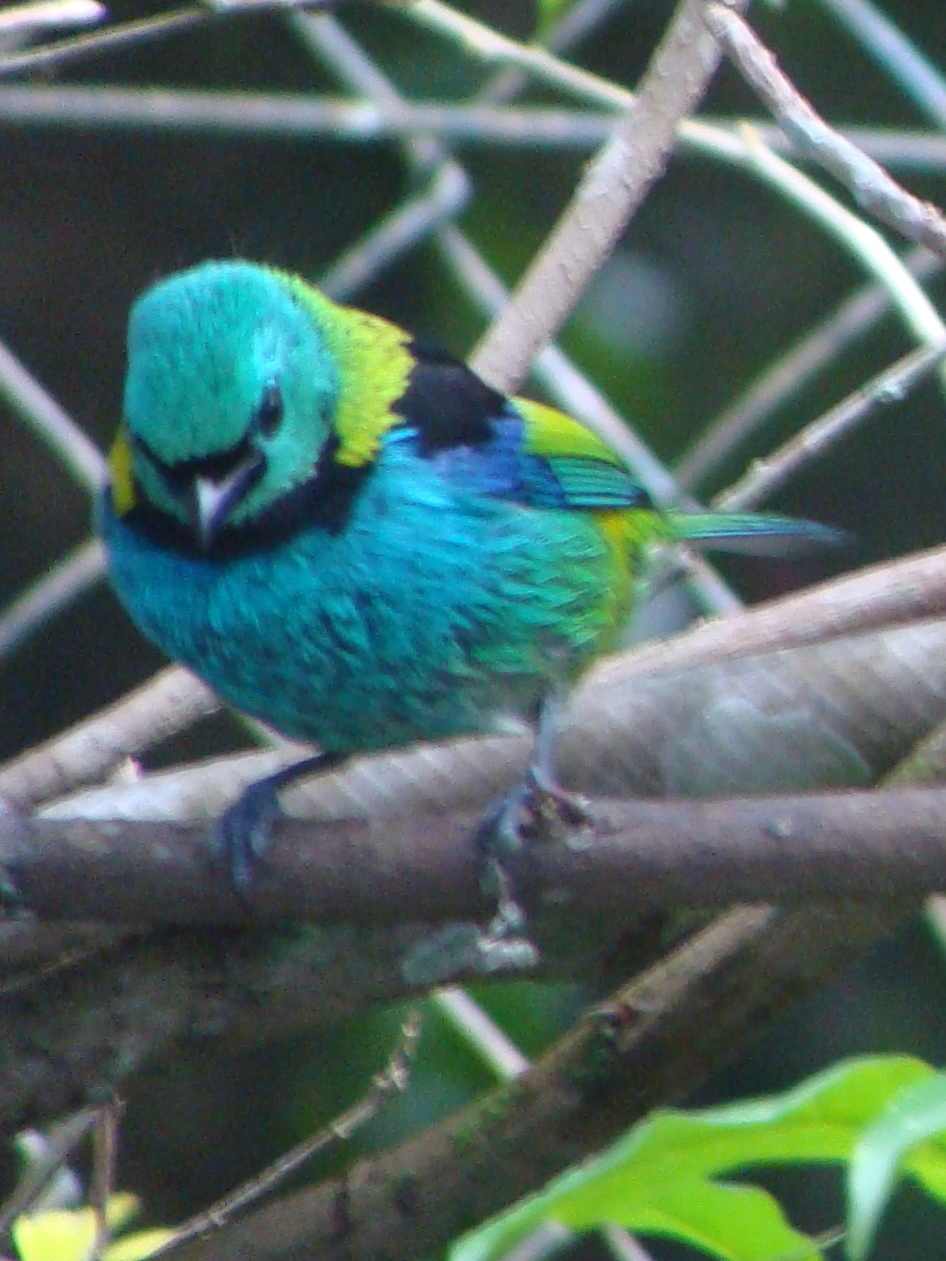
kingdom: Animalia
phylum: Chordata
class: Aves
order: Passeriformes
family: Thraupidae
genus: Tangara
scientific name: Tangara seledon
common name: Green-headed tanager
